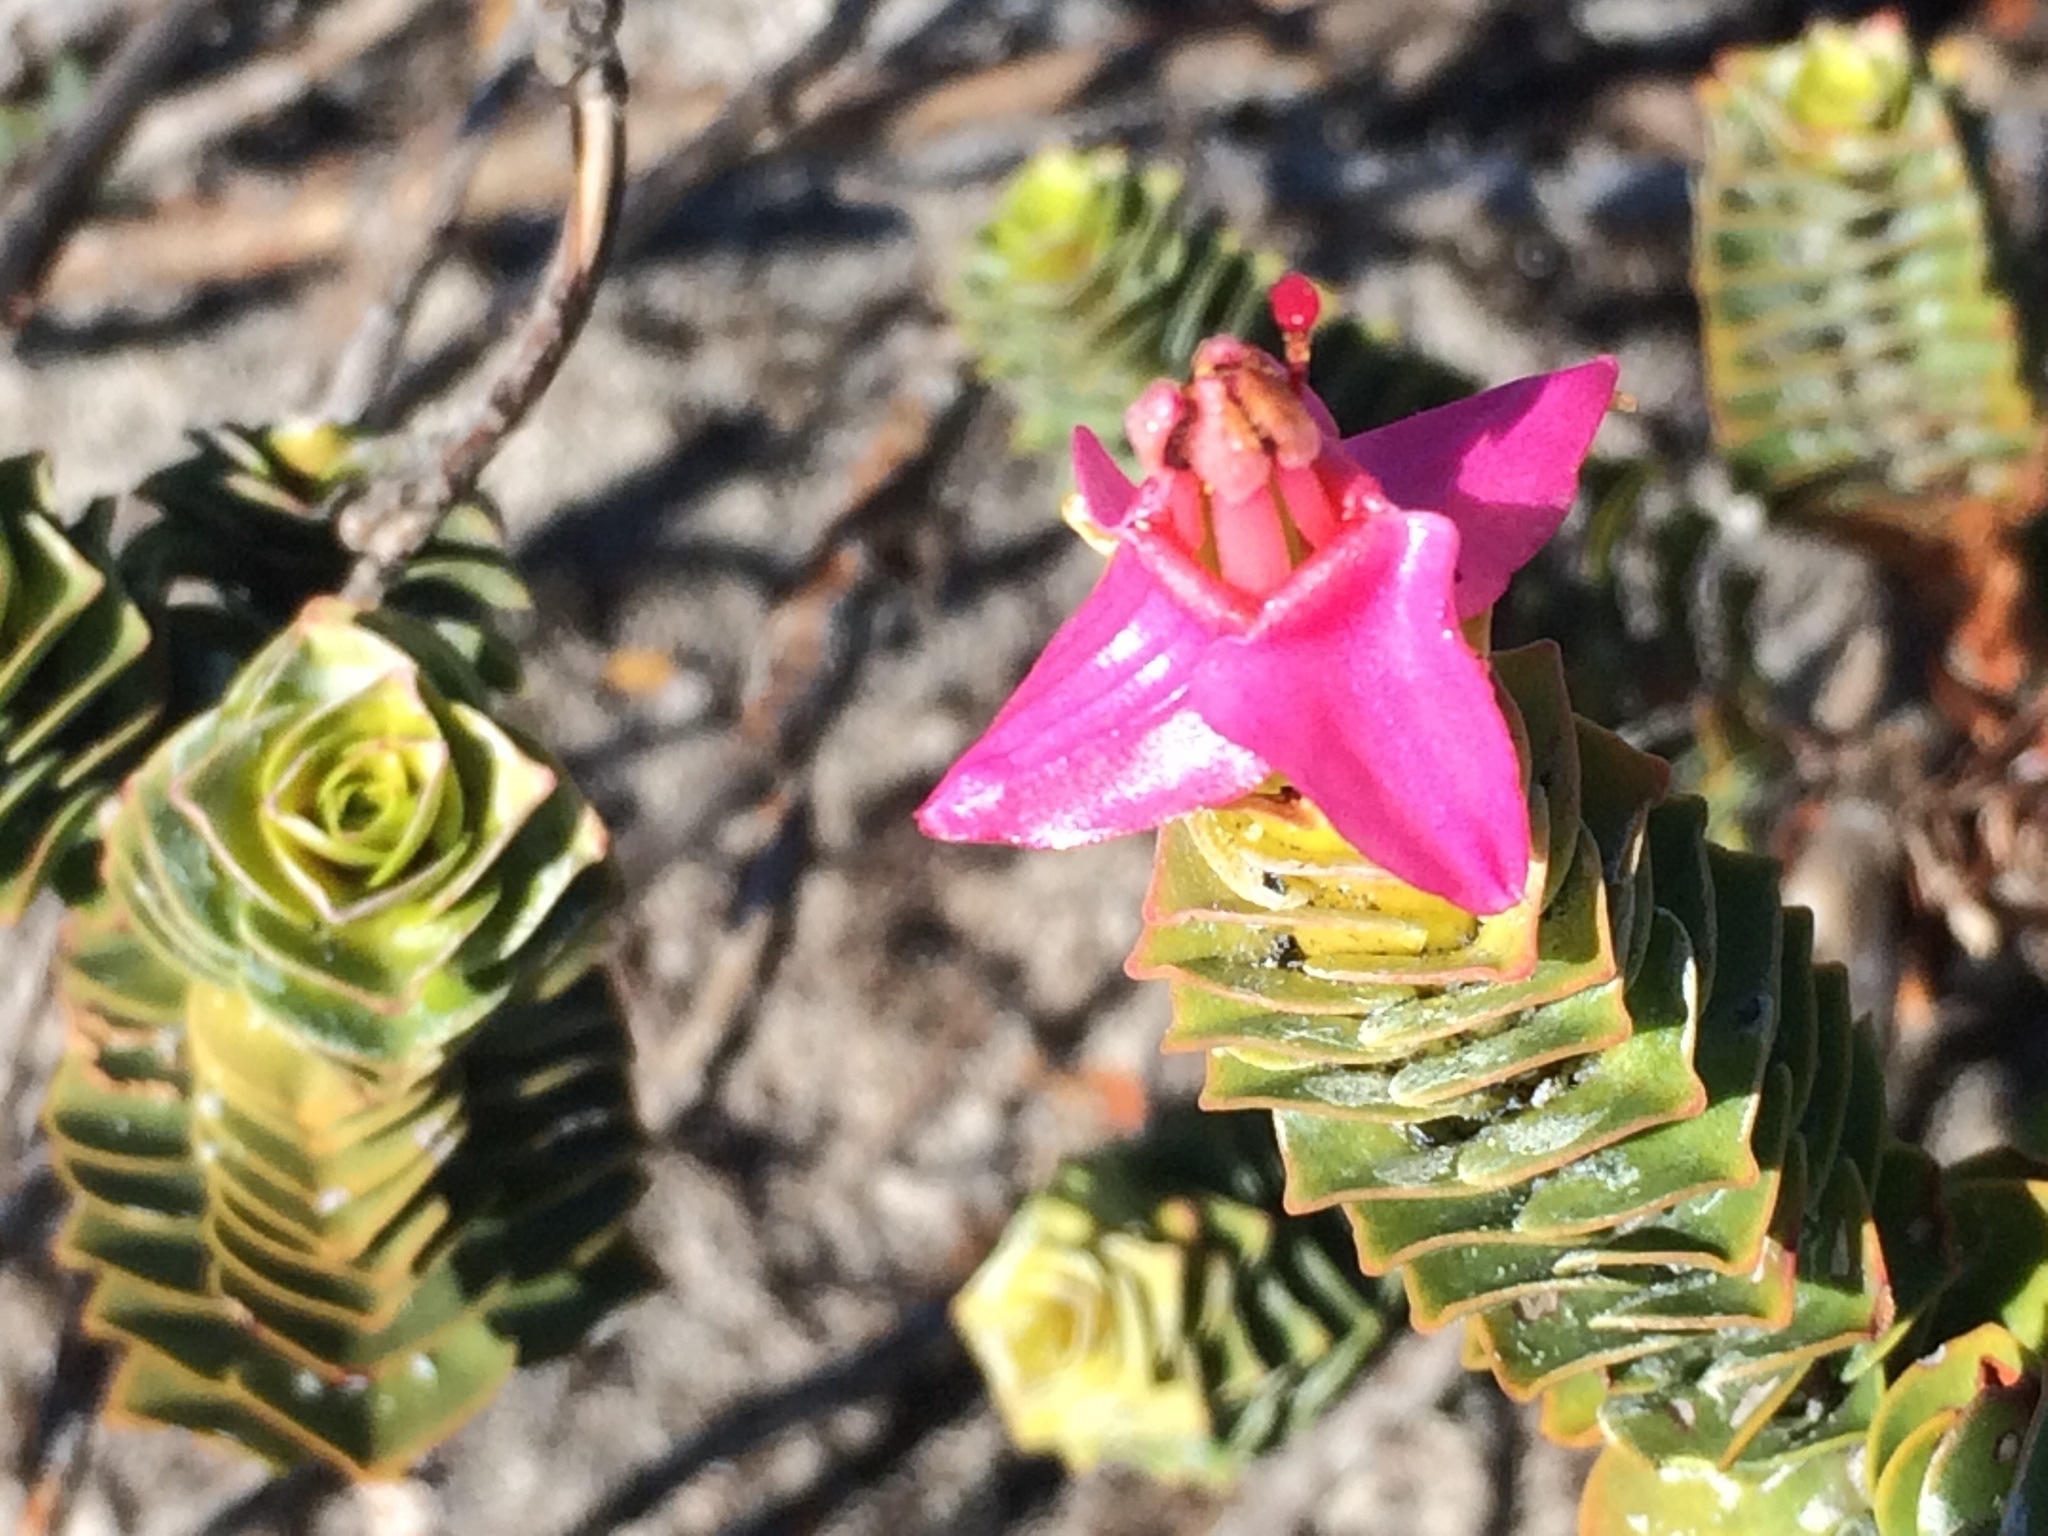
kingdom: Plantae
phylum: Tracheophyta
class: Magnoliopsida
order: Myrtales
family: Penaeaceae
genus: Saltera
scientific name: Saltera sarcocolla
